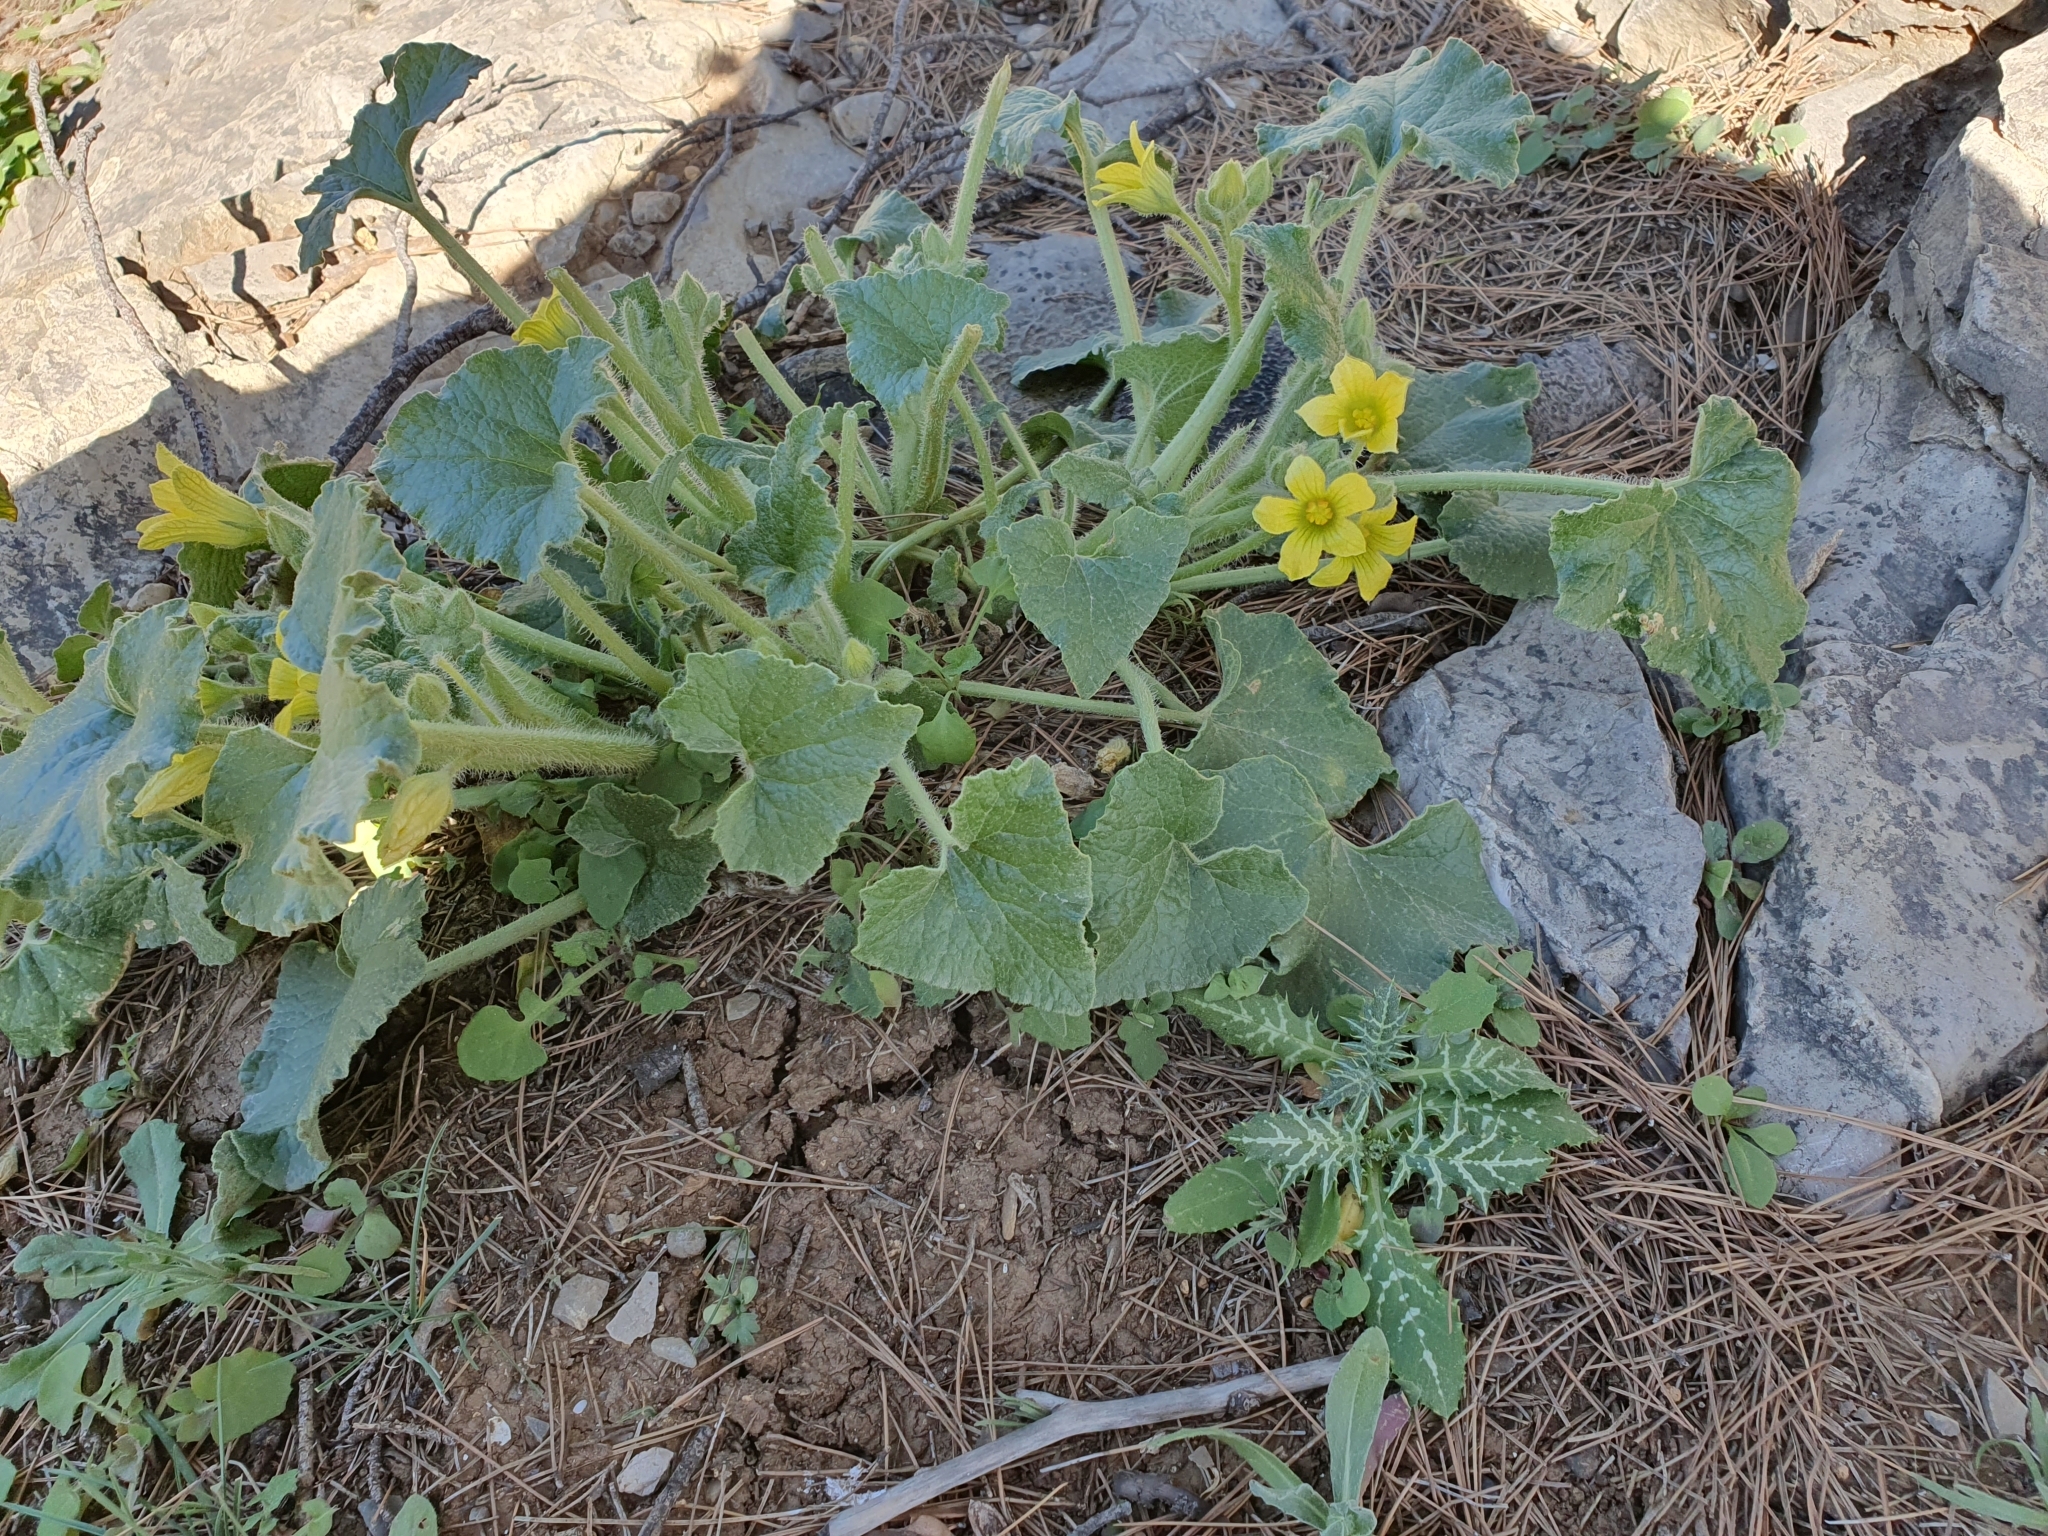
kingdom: Plantae
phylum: Tracheophyta
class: Magnoliopsida
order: Cucurbitales
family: Cucurbitaceae
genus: Ecballium
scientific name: Ecballium elaterium
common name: Squirting cucumber
